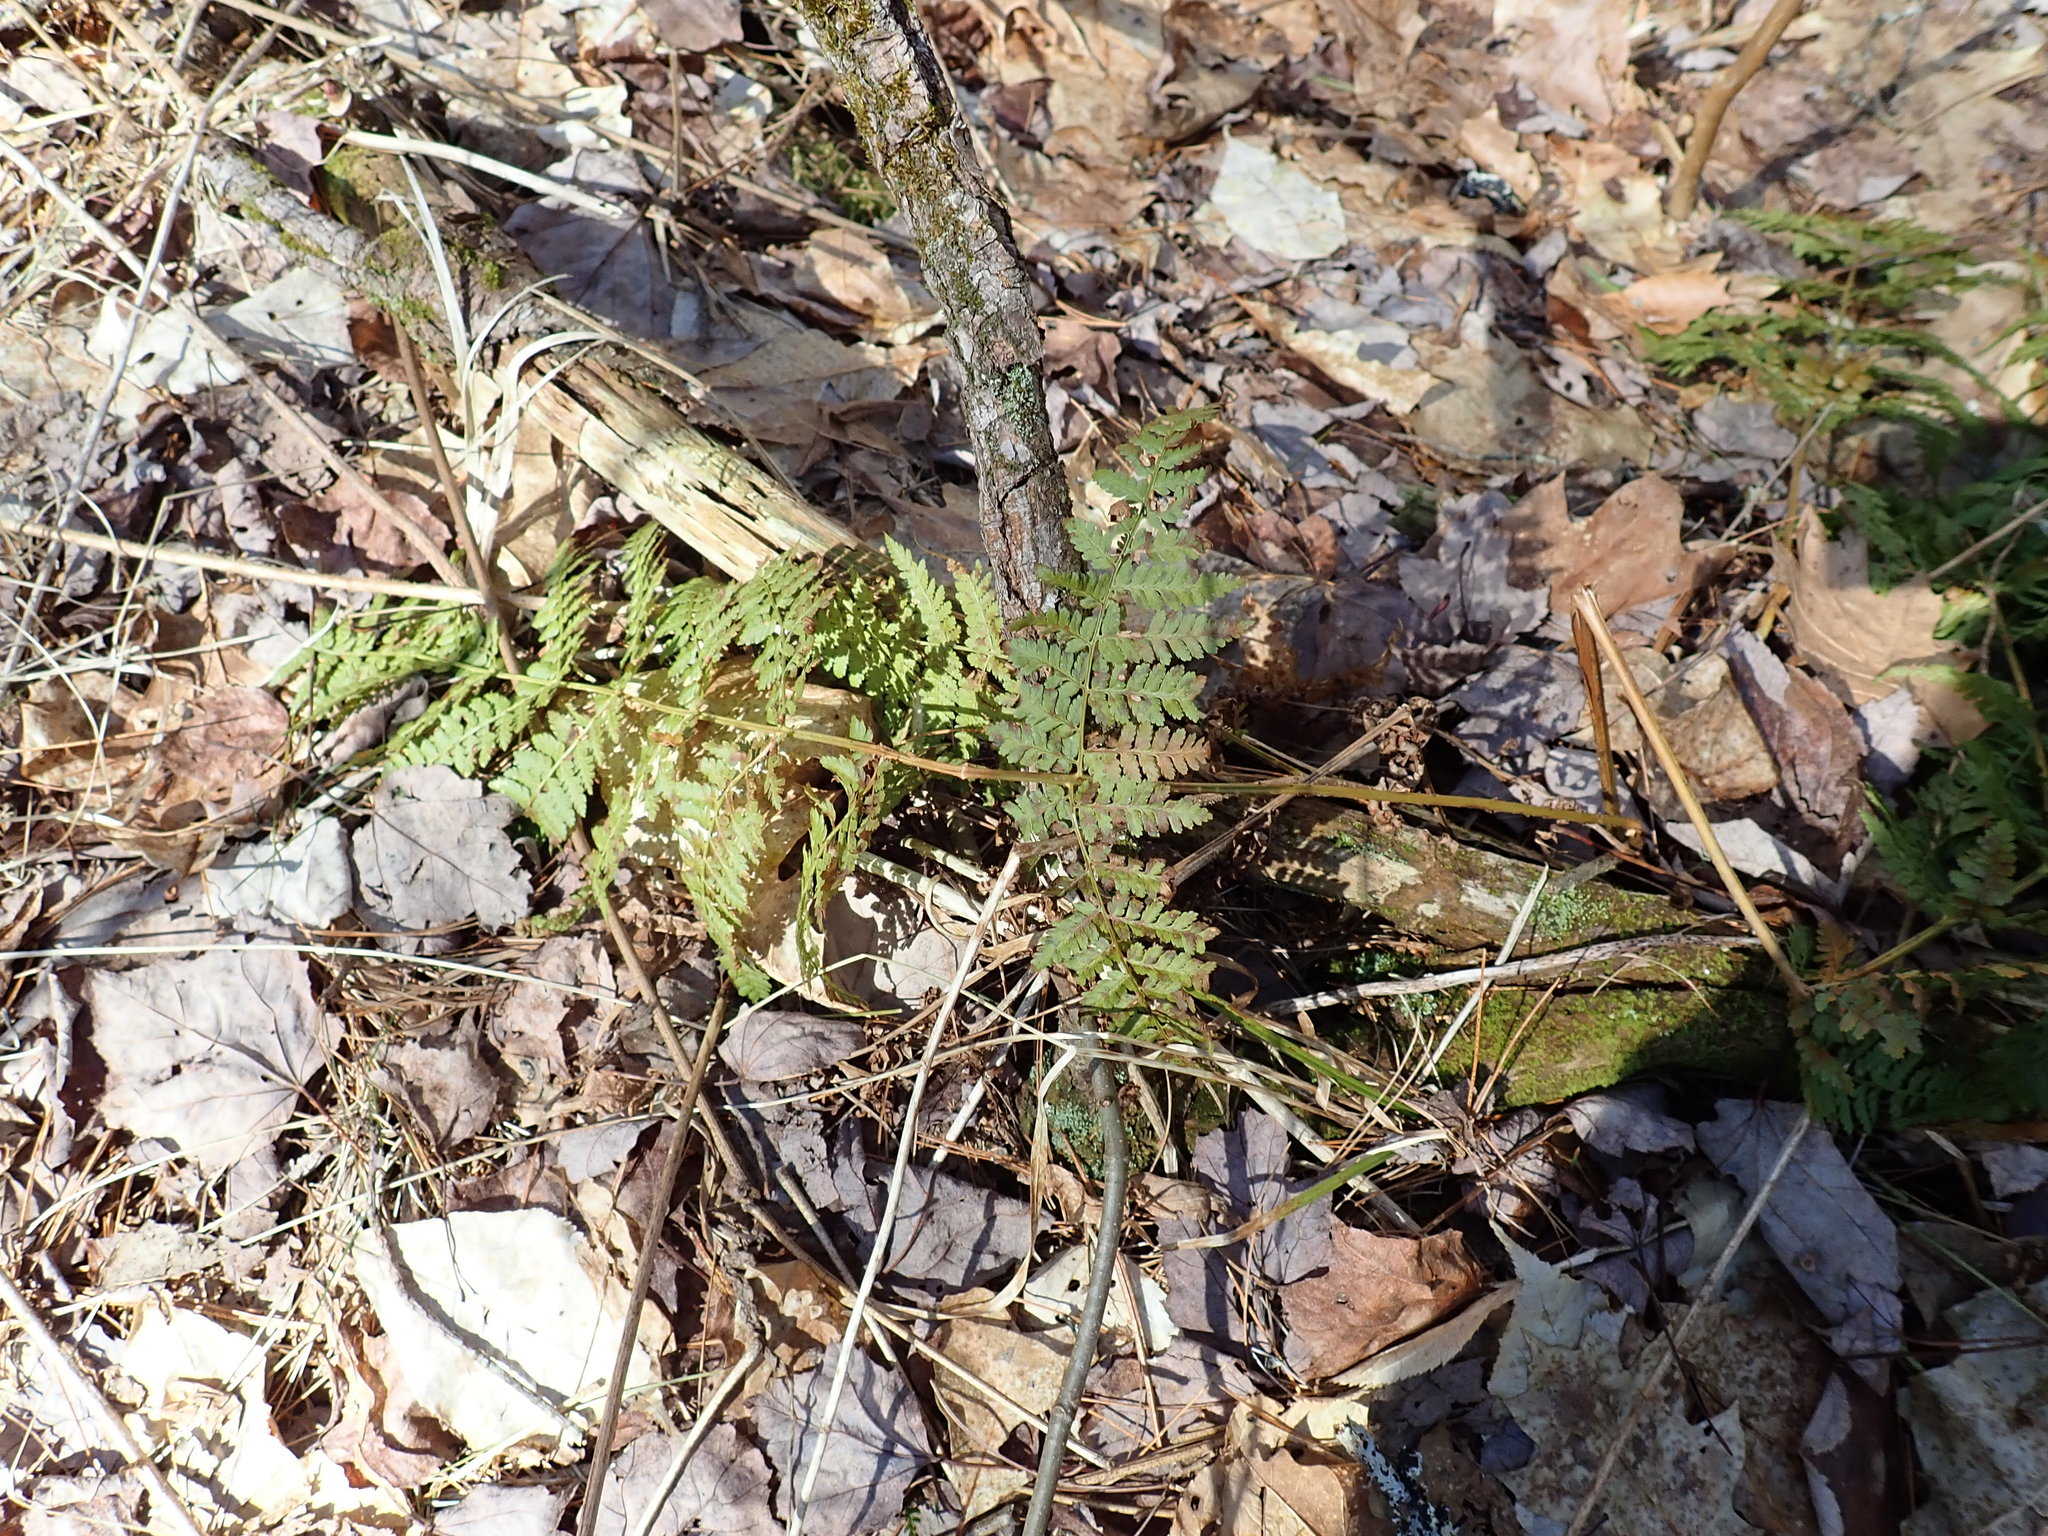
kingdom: Plantae
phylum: Tracheophyta
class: Polypodiopsida
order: Polypodiales
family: Dryopteridaceae
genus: Dryopteris
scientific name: Dryopteris intermedia
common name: Evergreen wood fern
